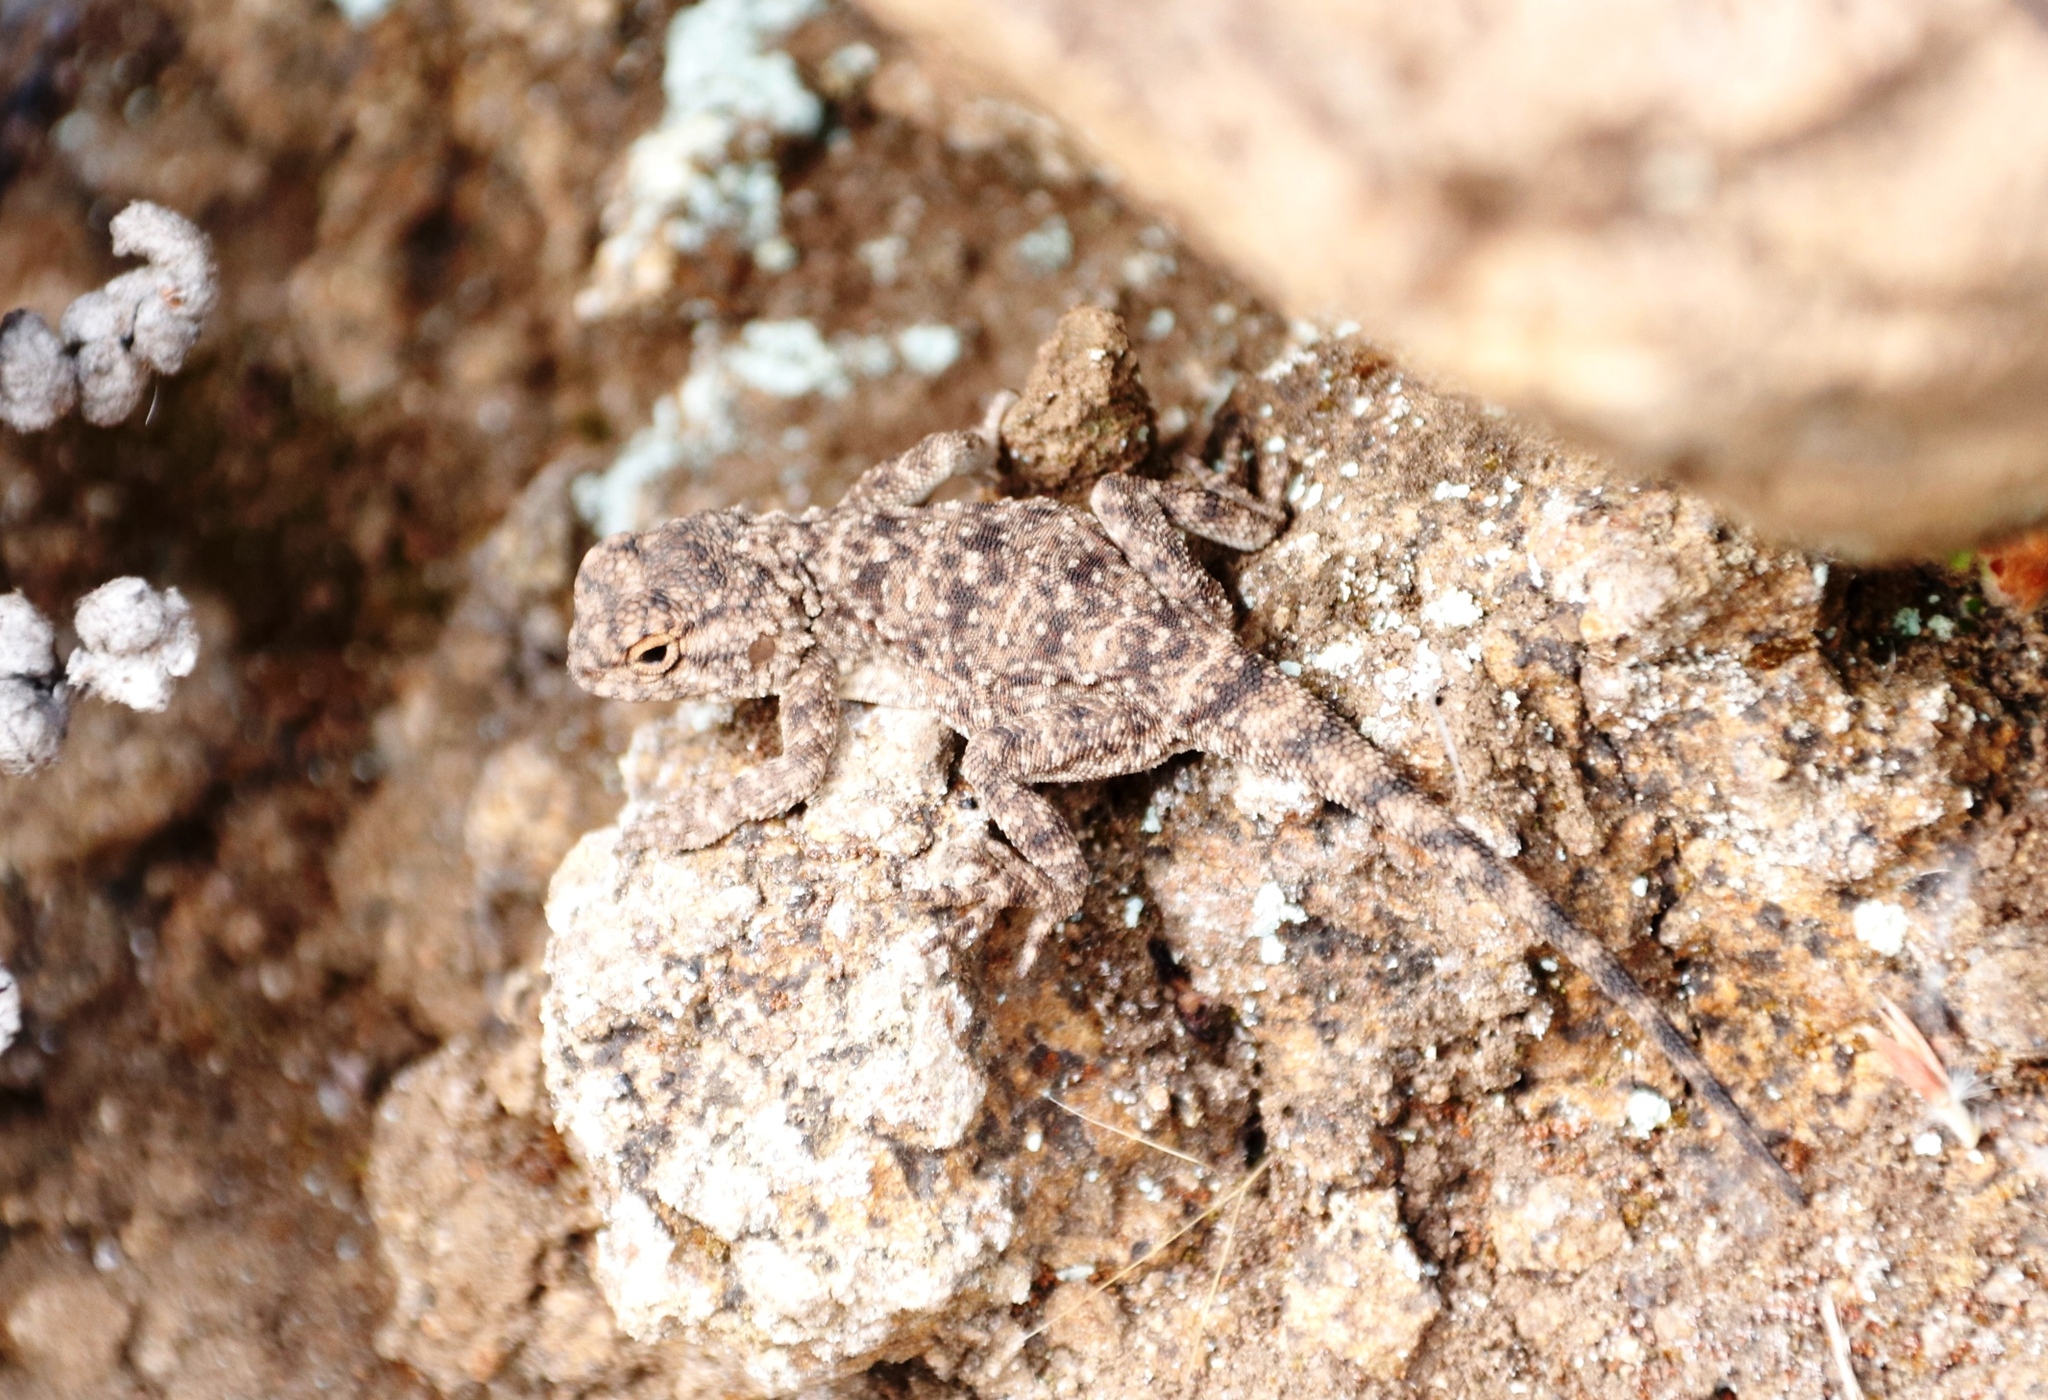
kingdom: Animalia
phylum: Chordata
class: Squamata
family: Agamidae
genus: Agama
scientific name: Agama atra
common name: Southern african rock agama
